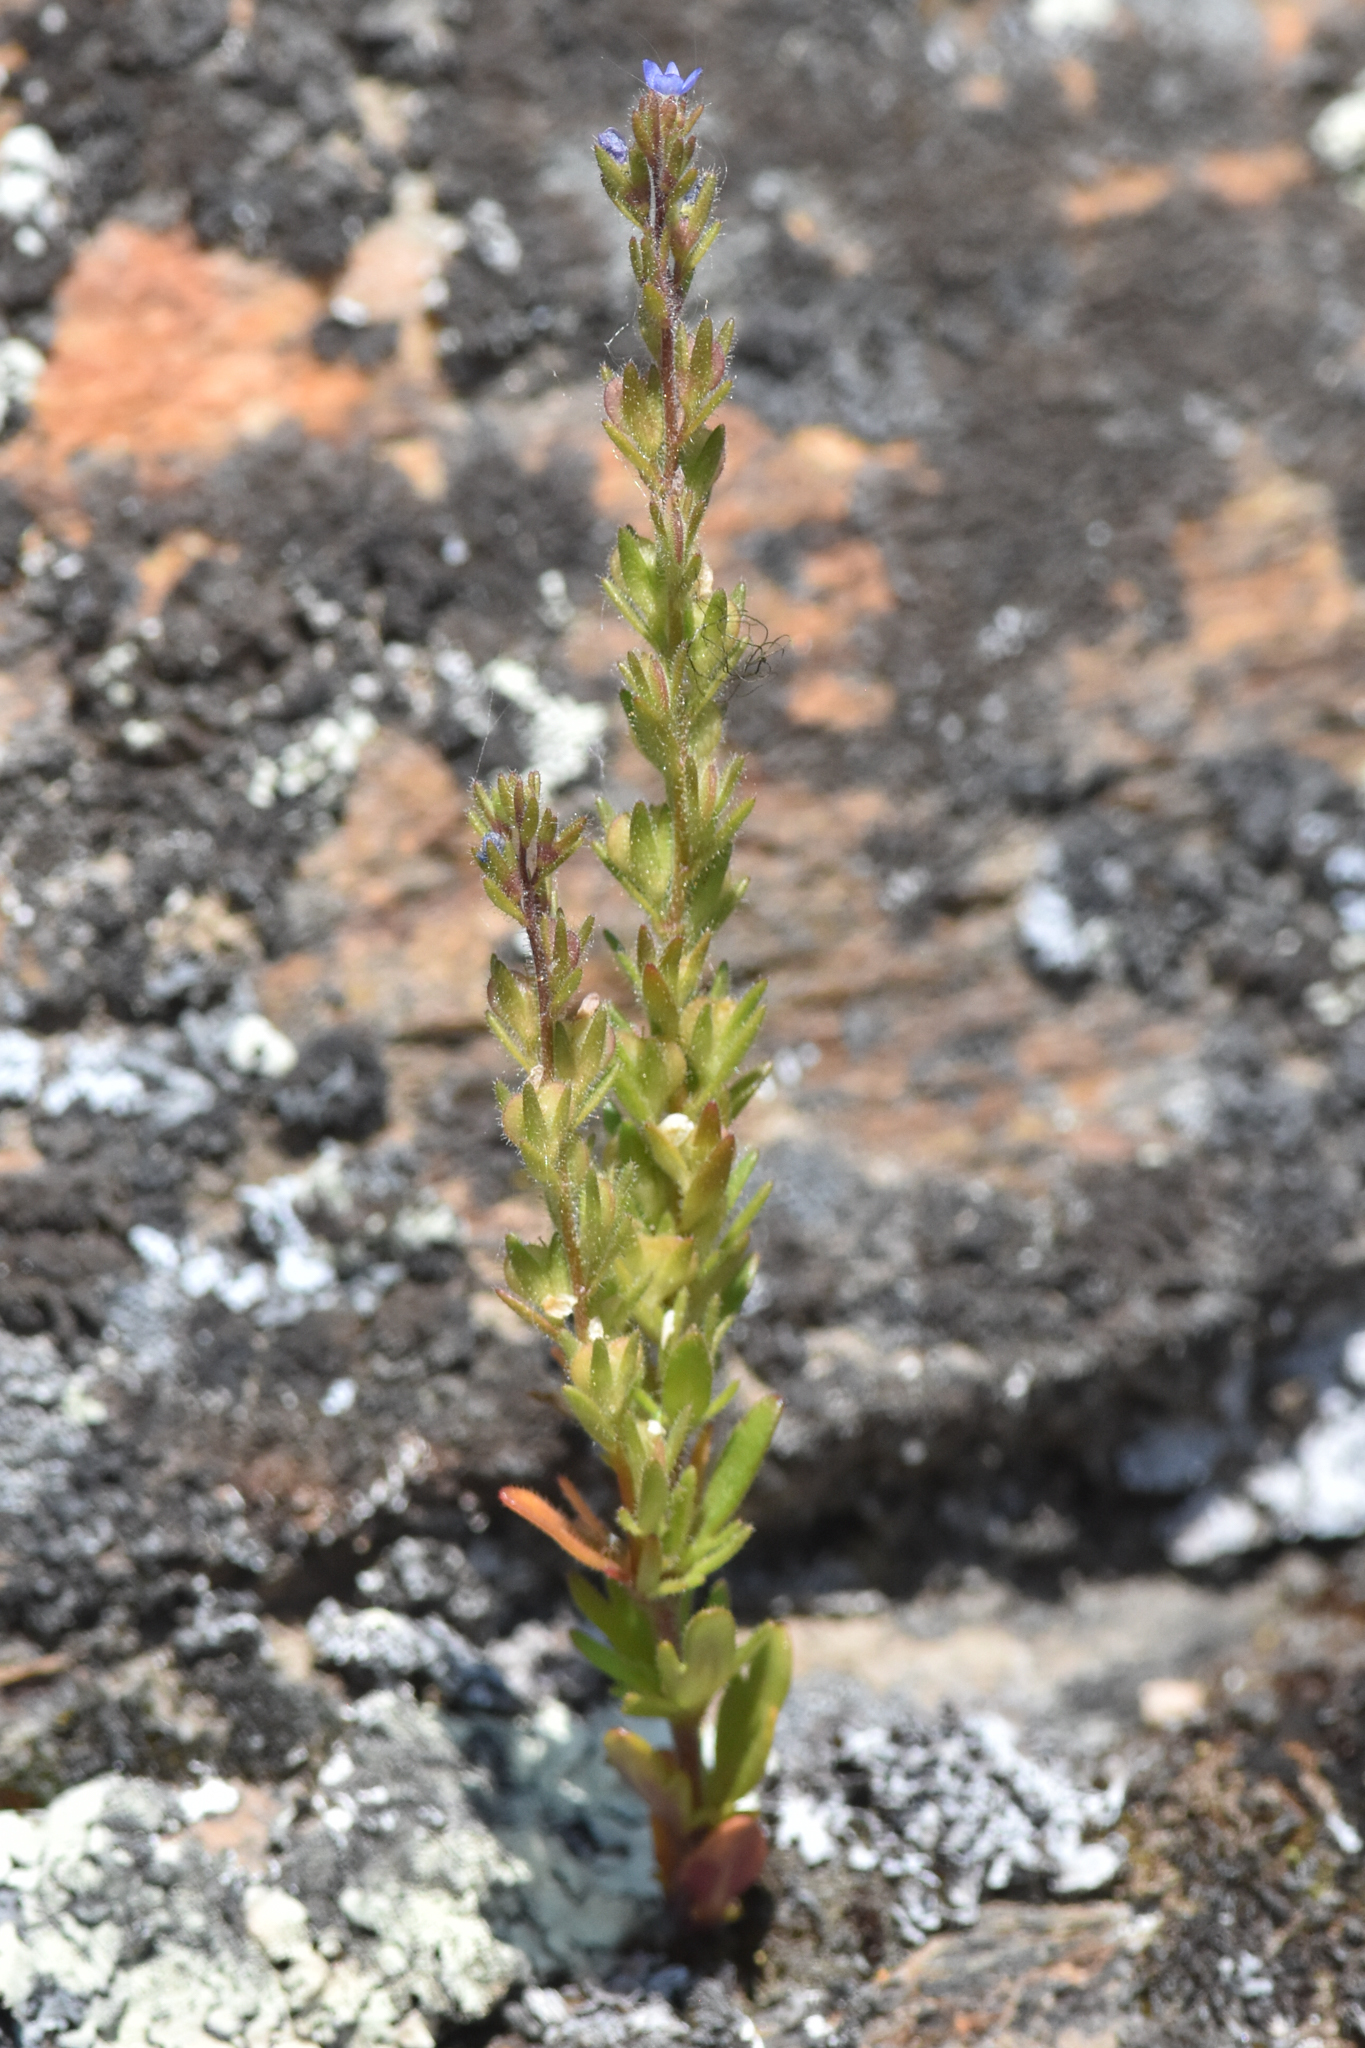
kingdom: Plantae
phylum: Tracheophyta
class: Magnoliopsida
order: Lamiales
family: Plantaginaceae
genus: Veronica
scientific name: Veronica verna
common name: Spring speedwell
